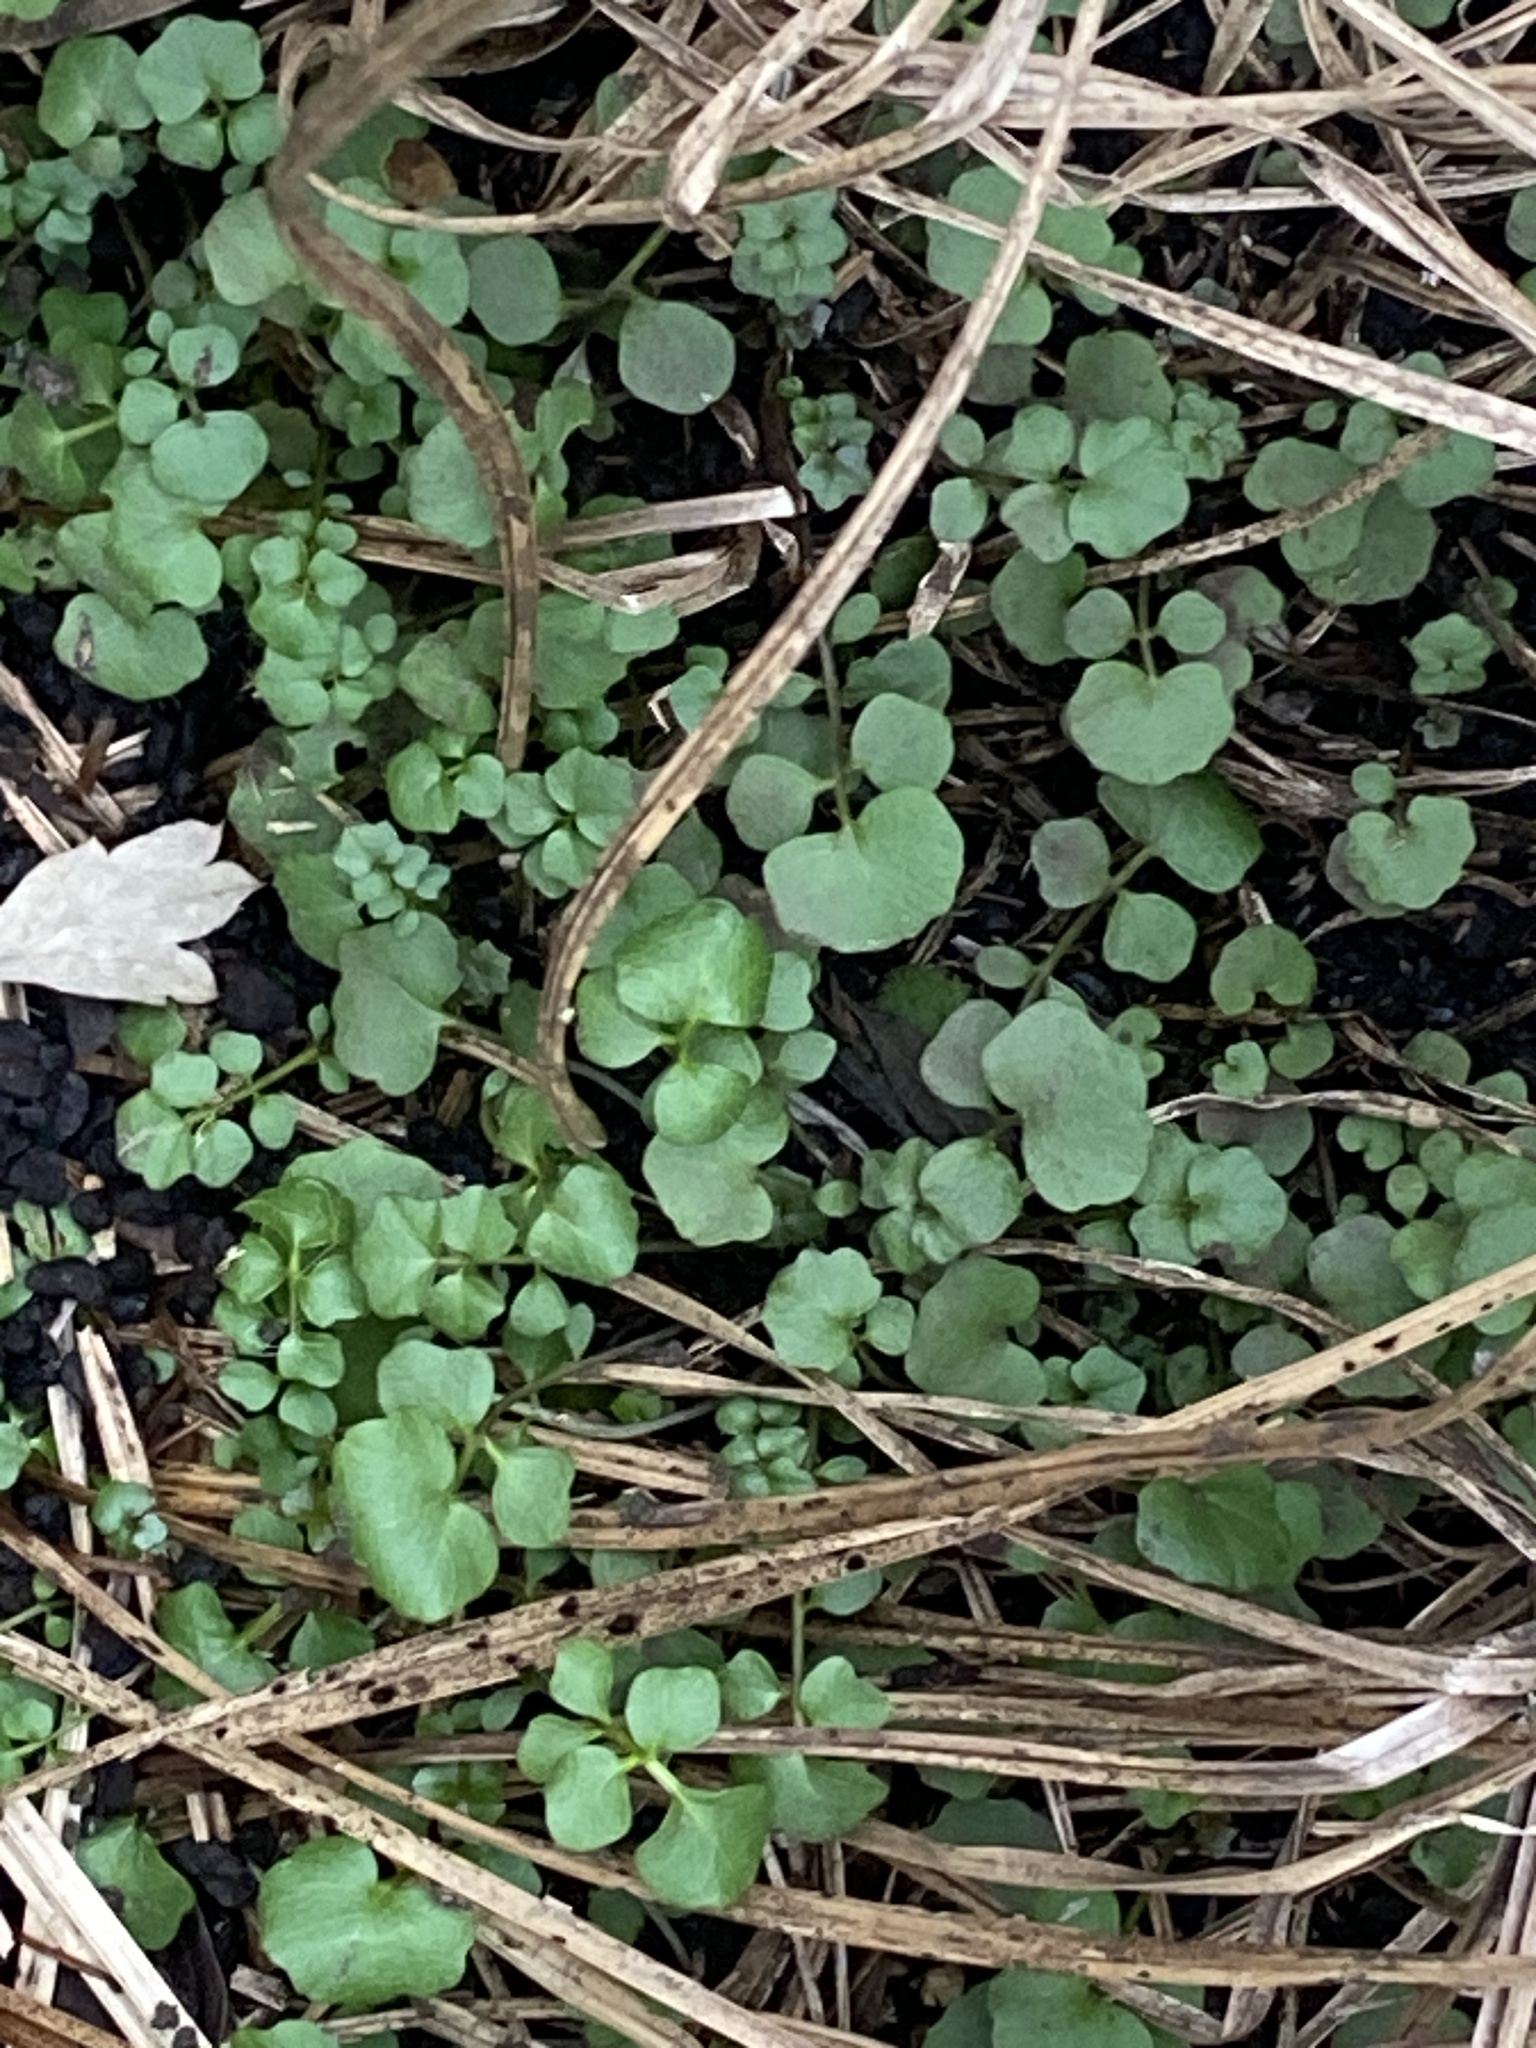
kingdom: Plantae
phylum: Tracheophyta
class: Magnoliopsida
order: Brassicales
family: Brassicaceae
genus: Cardamine
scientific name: Cardamine hirsuta
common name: Hairy bittercress
